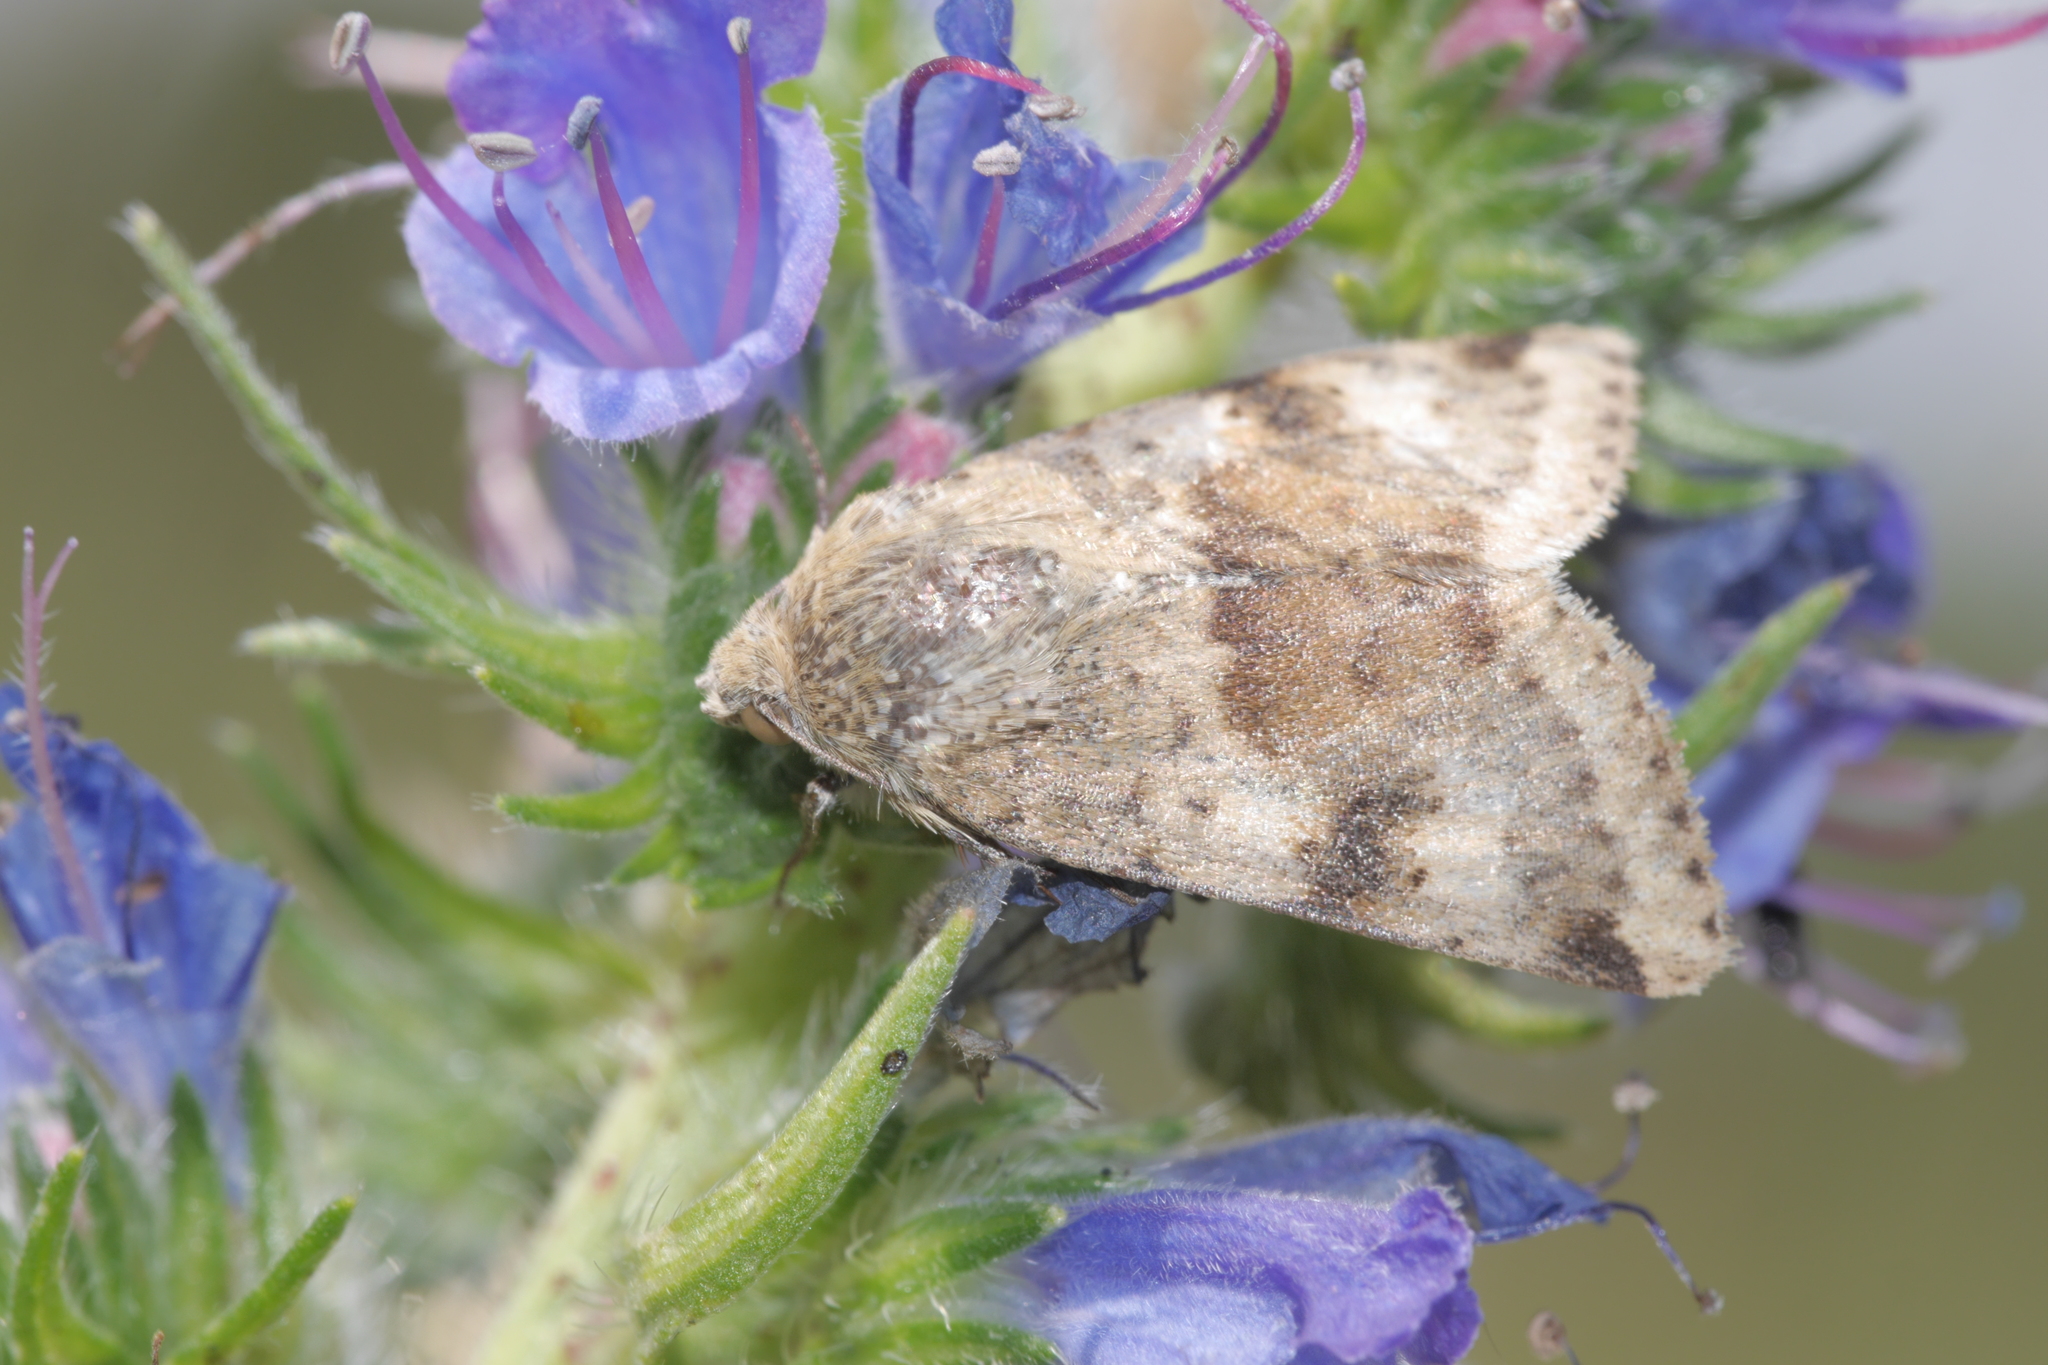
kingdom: Animalia
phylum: Arthropoda
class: Insecta
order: Lepidoptera
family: Noctuidae
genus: Heliothis
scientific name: Heliothis viriplaca
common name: Marbled clover
